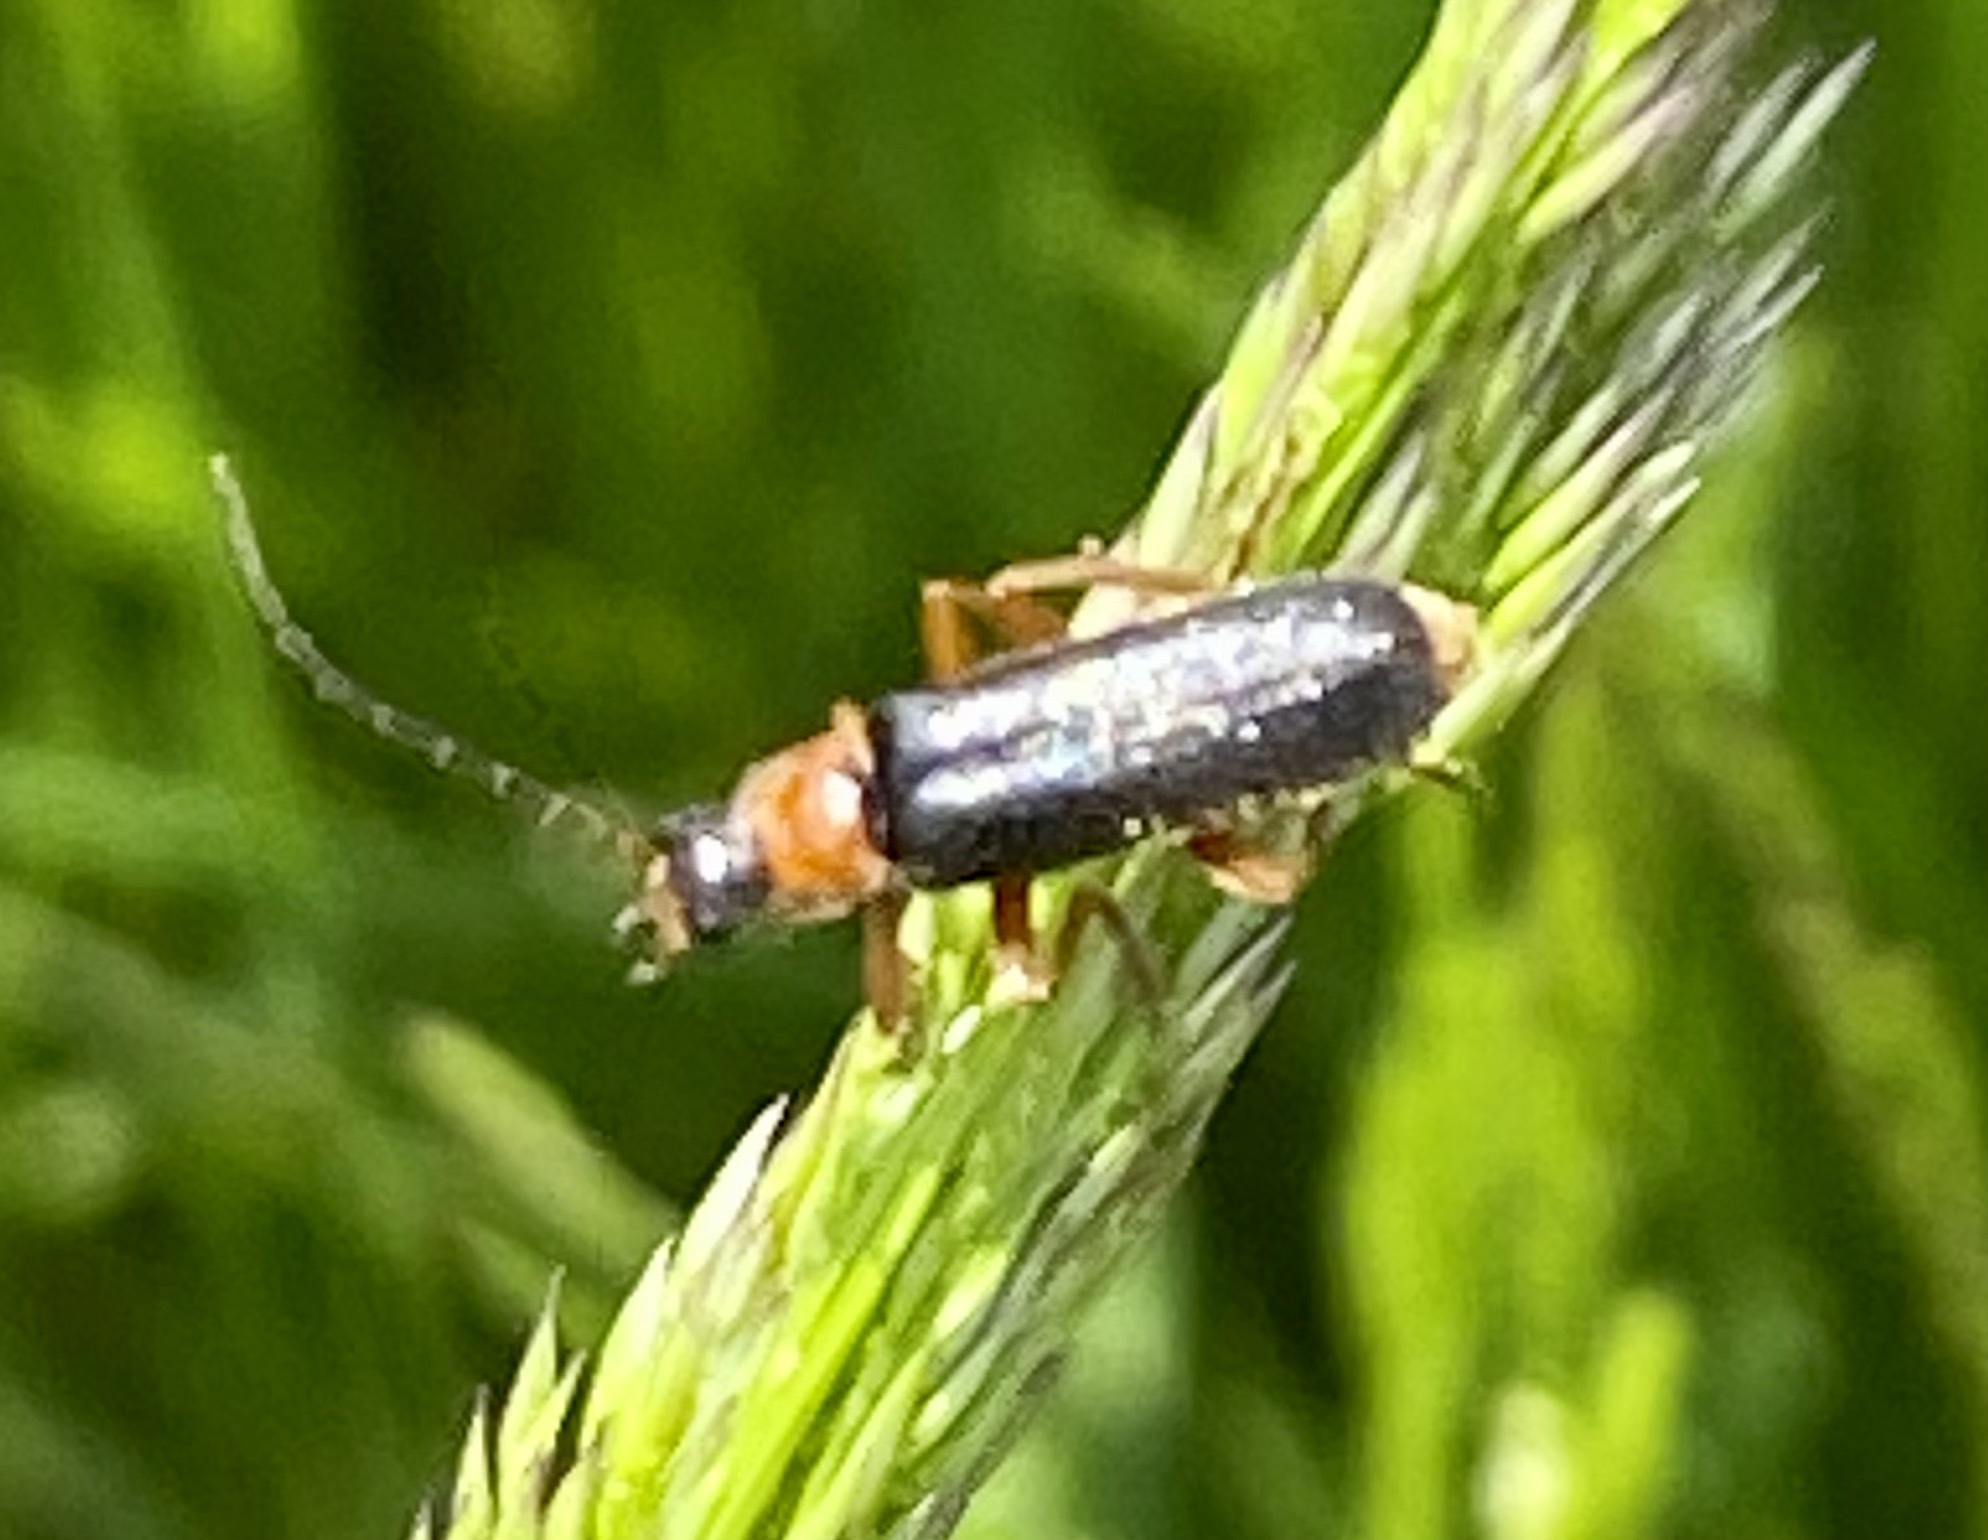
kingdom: Animalia
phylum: Arthropoda
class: Insecta
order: Coleoptera
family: Cantharidae
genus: Cantharis
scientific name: Cantharis flavilabris
